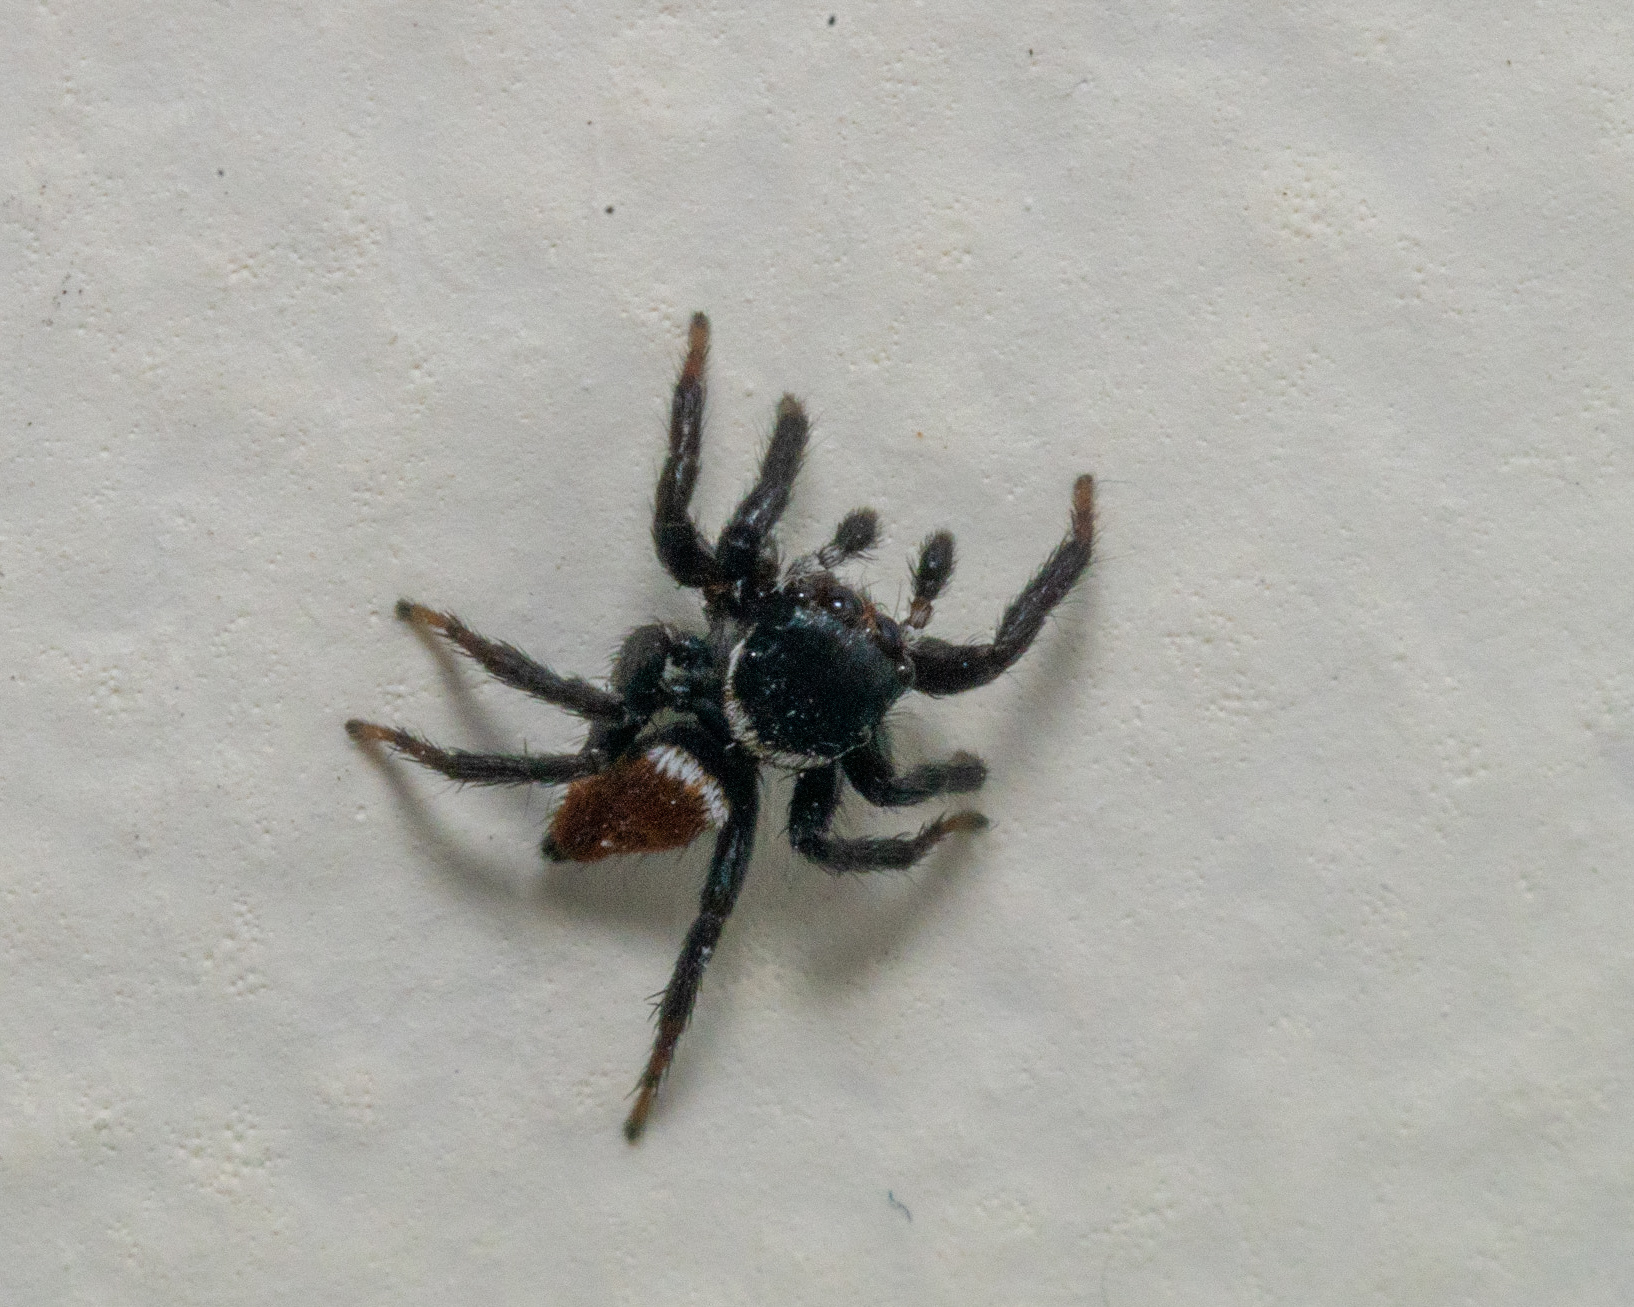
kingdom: Animalia
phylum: Arthropoda
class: Arachnida
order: Araneae
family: Salticidae
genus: Evarcha
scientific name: Evarcha patagiata
